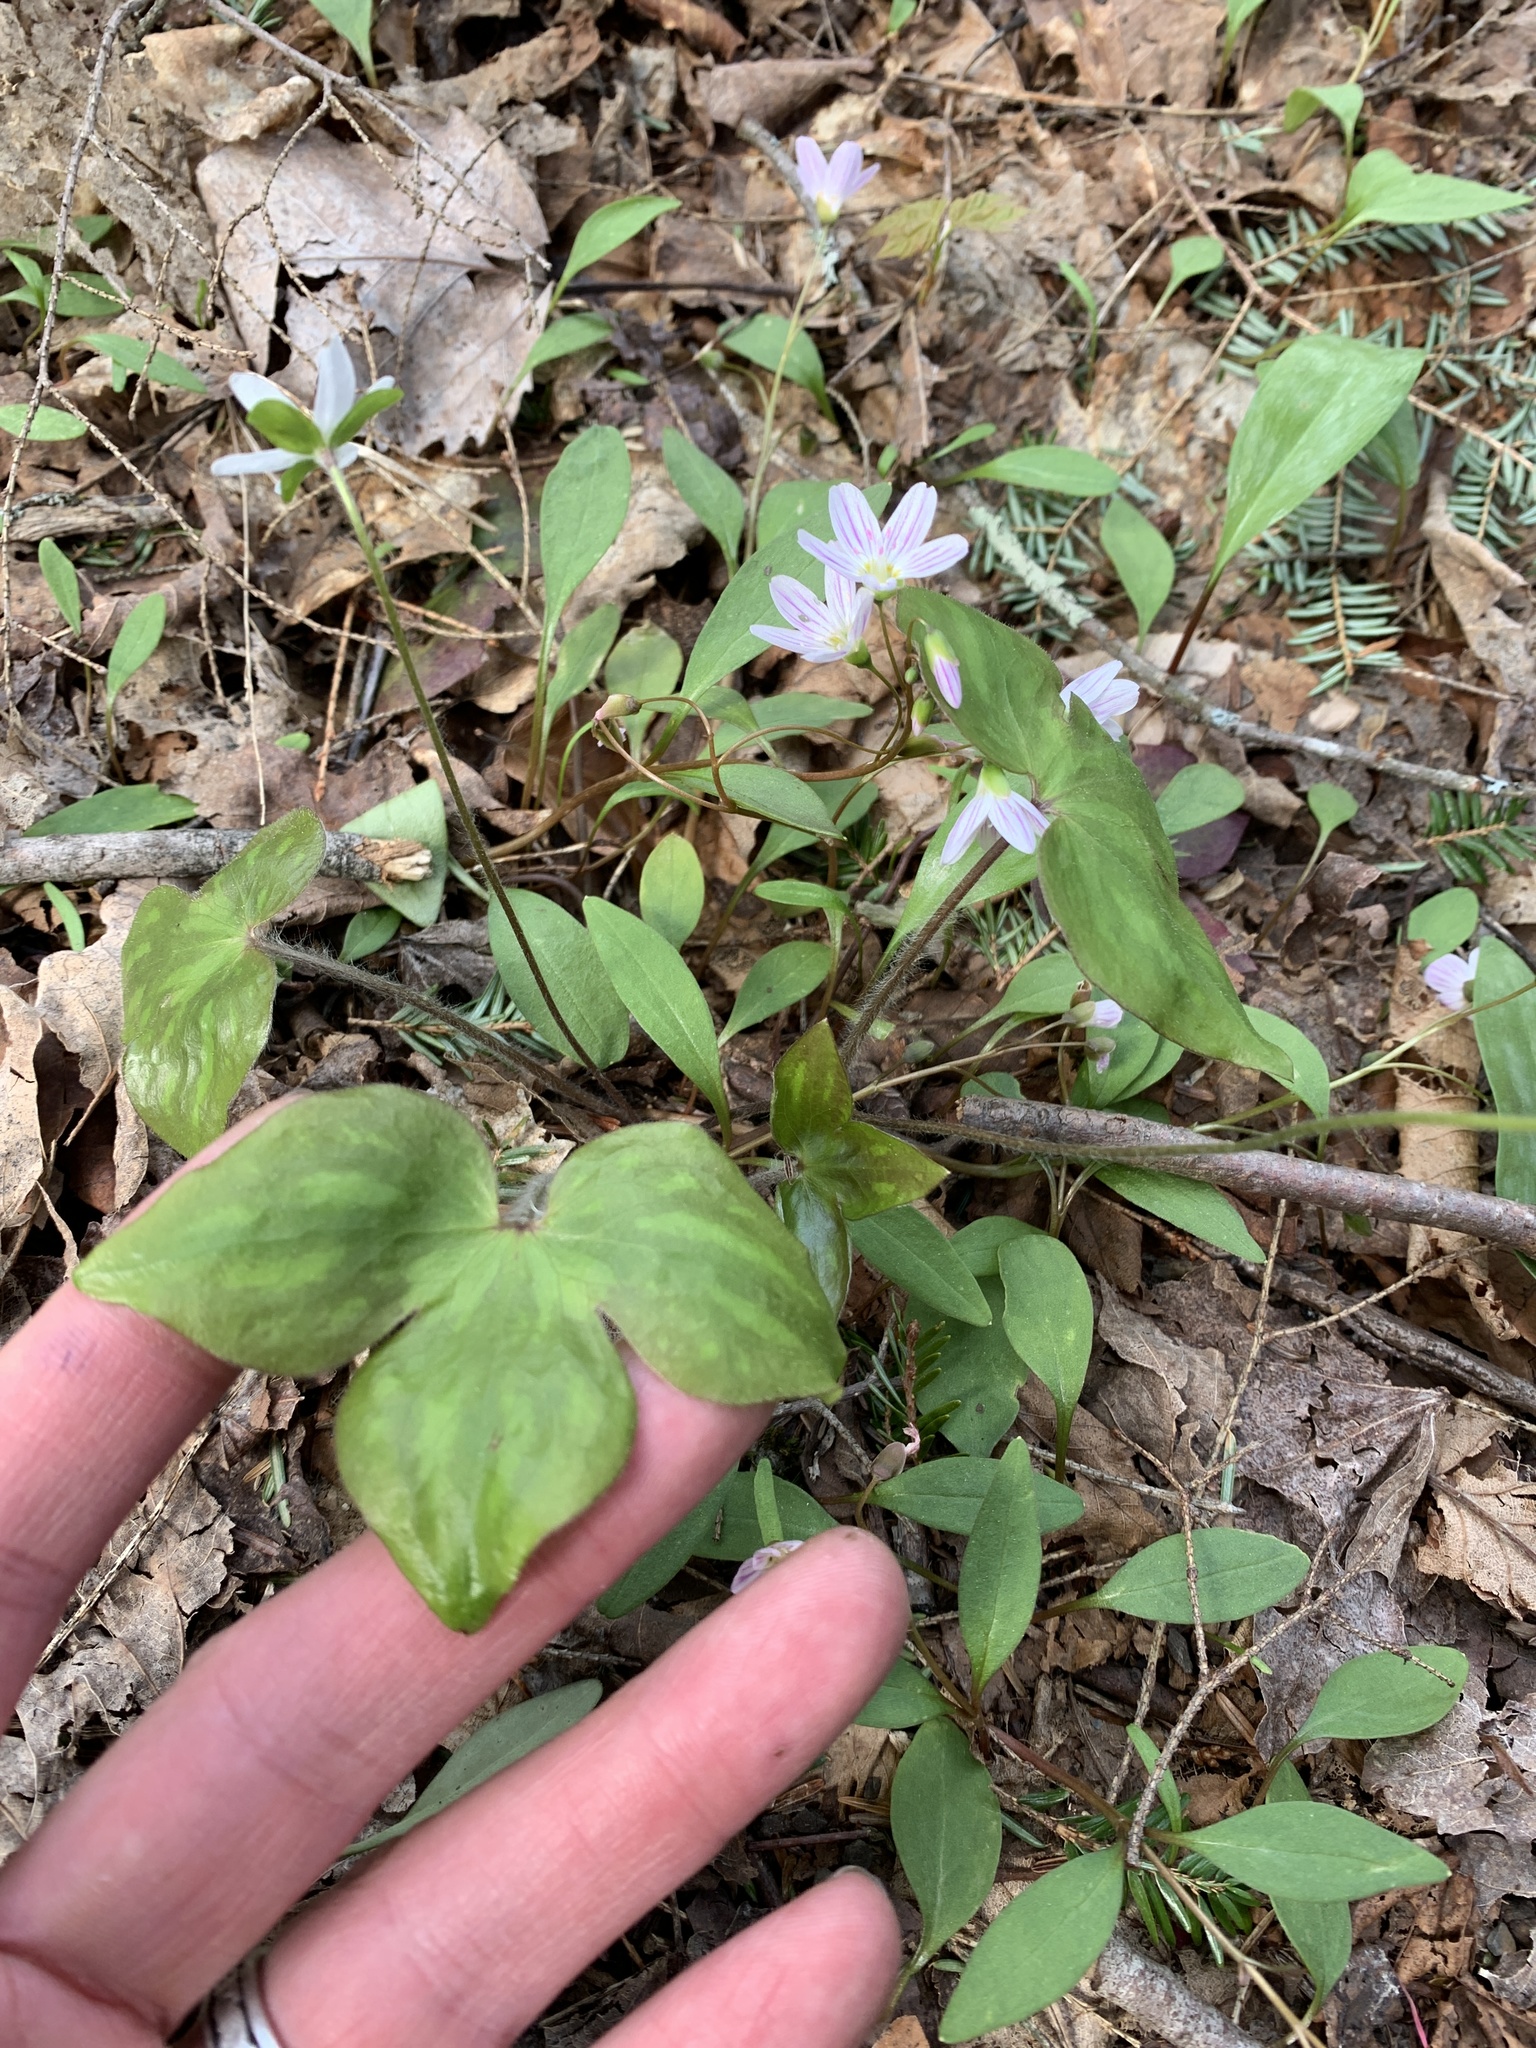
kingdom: Plantae
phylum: Tracheophyta
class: Magnoliopsida
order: Ranunculales
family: Ranunculaceae
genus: Hepatica
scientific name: Hepatica acutiloba
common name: Sharp-lobed hepatica
